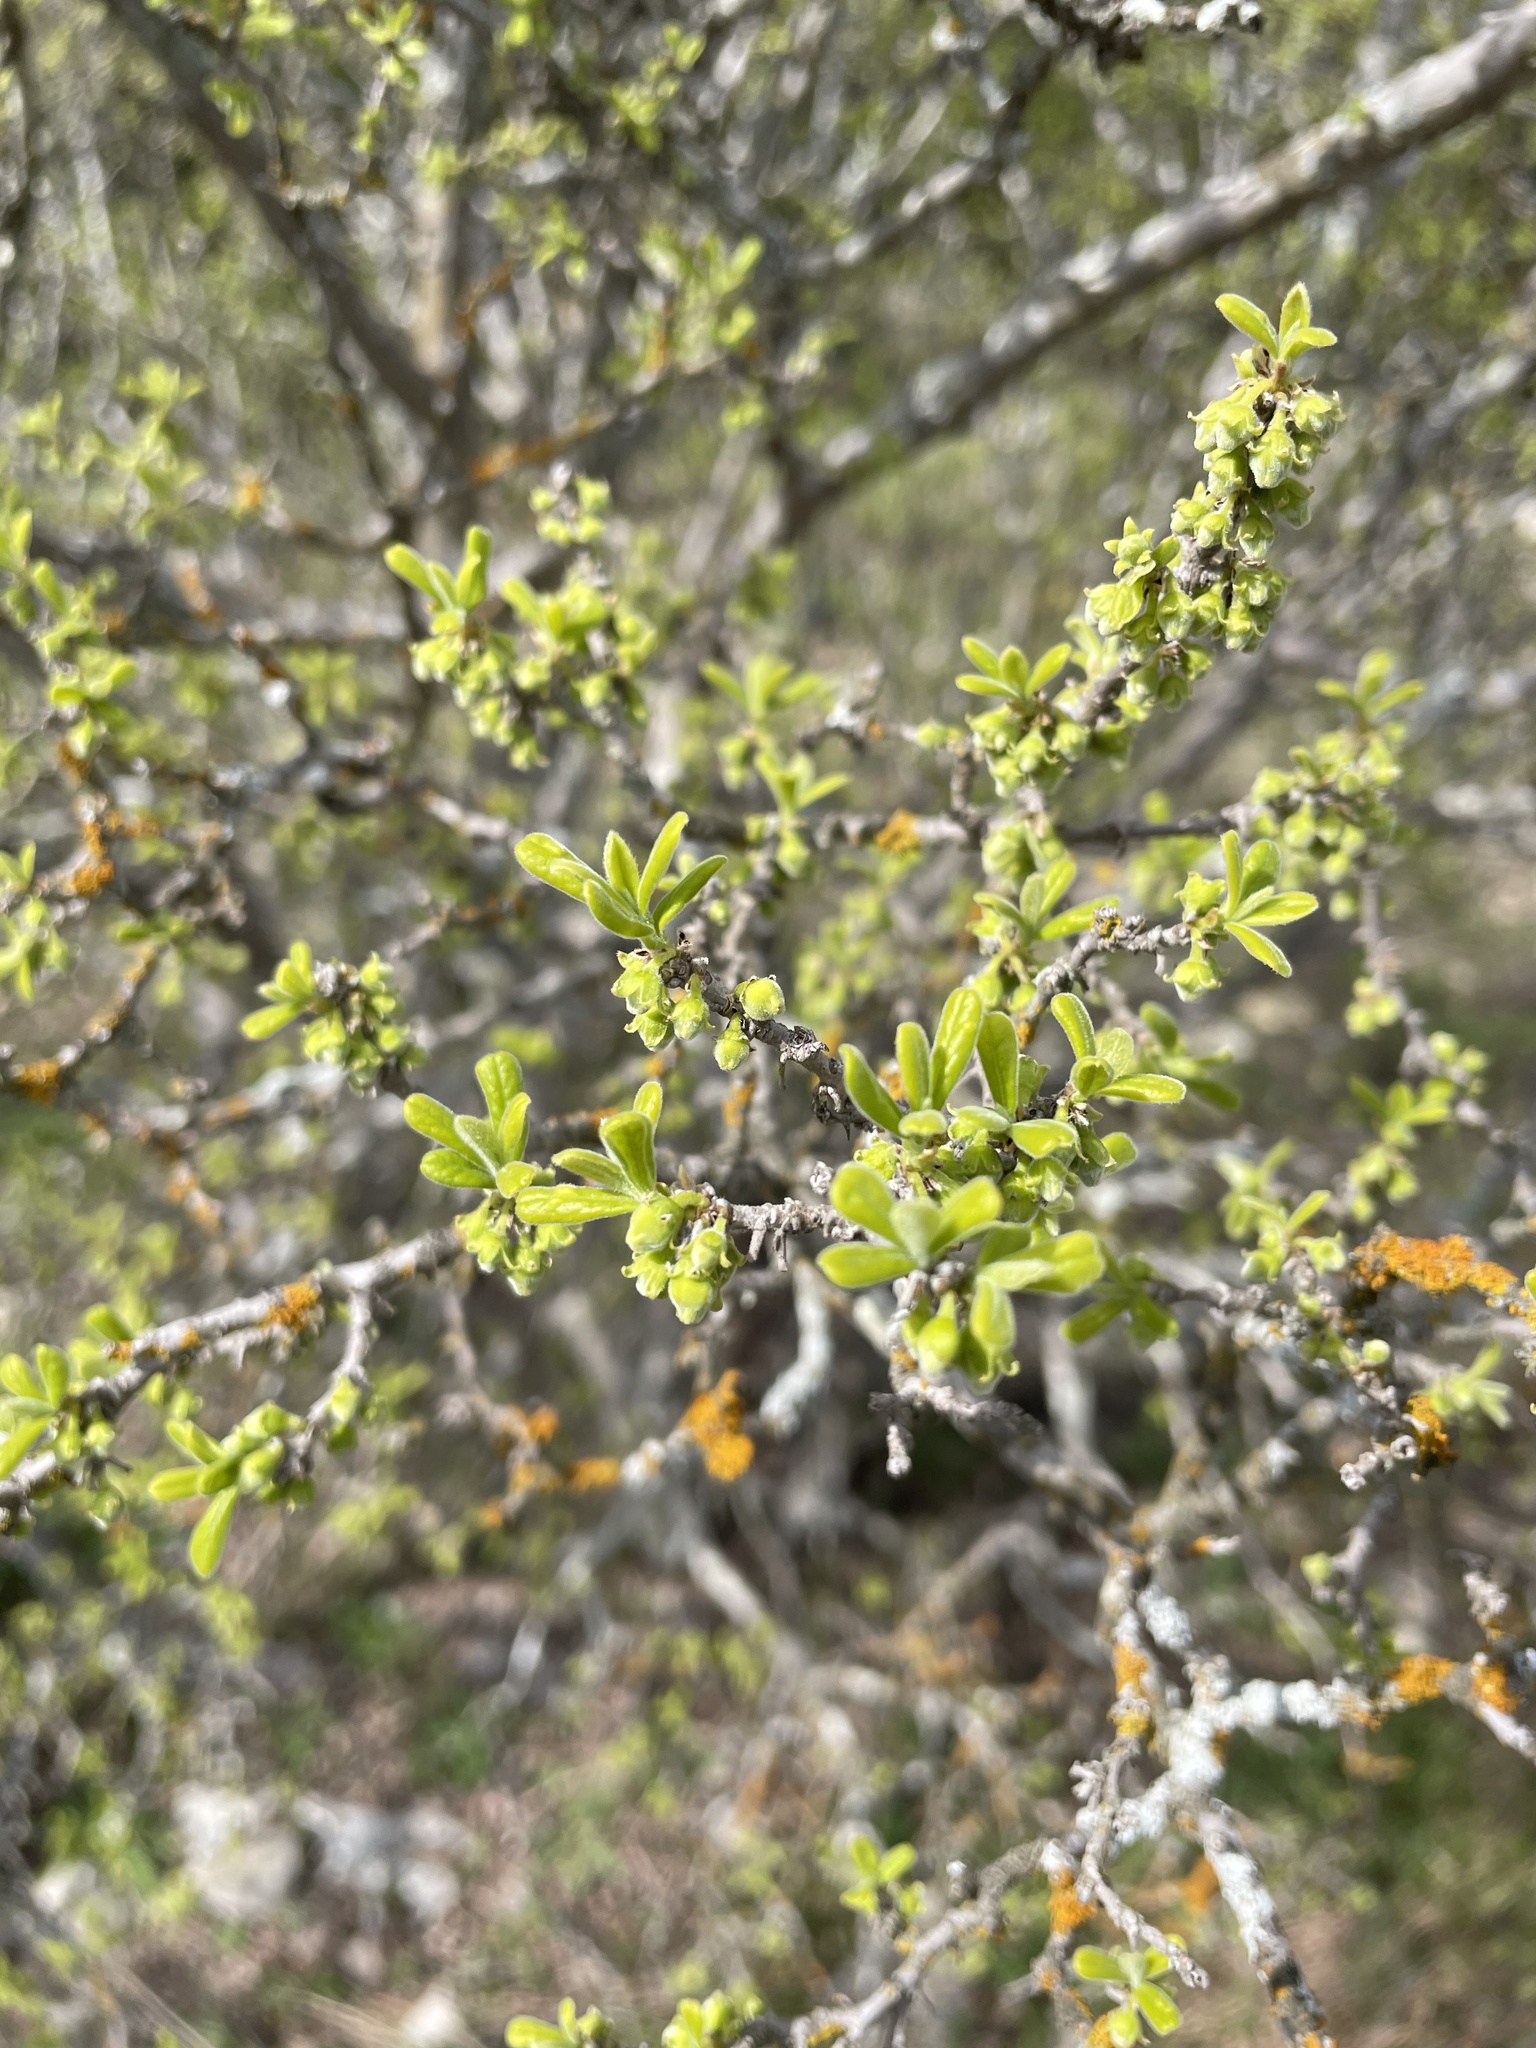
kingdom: Plantae
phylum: Tracheophyta
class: Magnoliopsida
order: Ericales
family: Ebenaceae
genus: Diospyros
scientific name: Diospyros texana
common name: Texas persimmon
